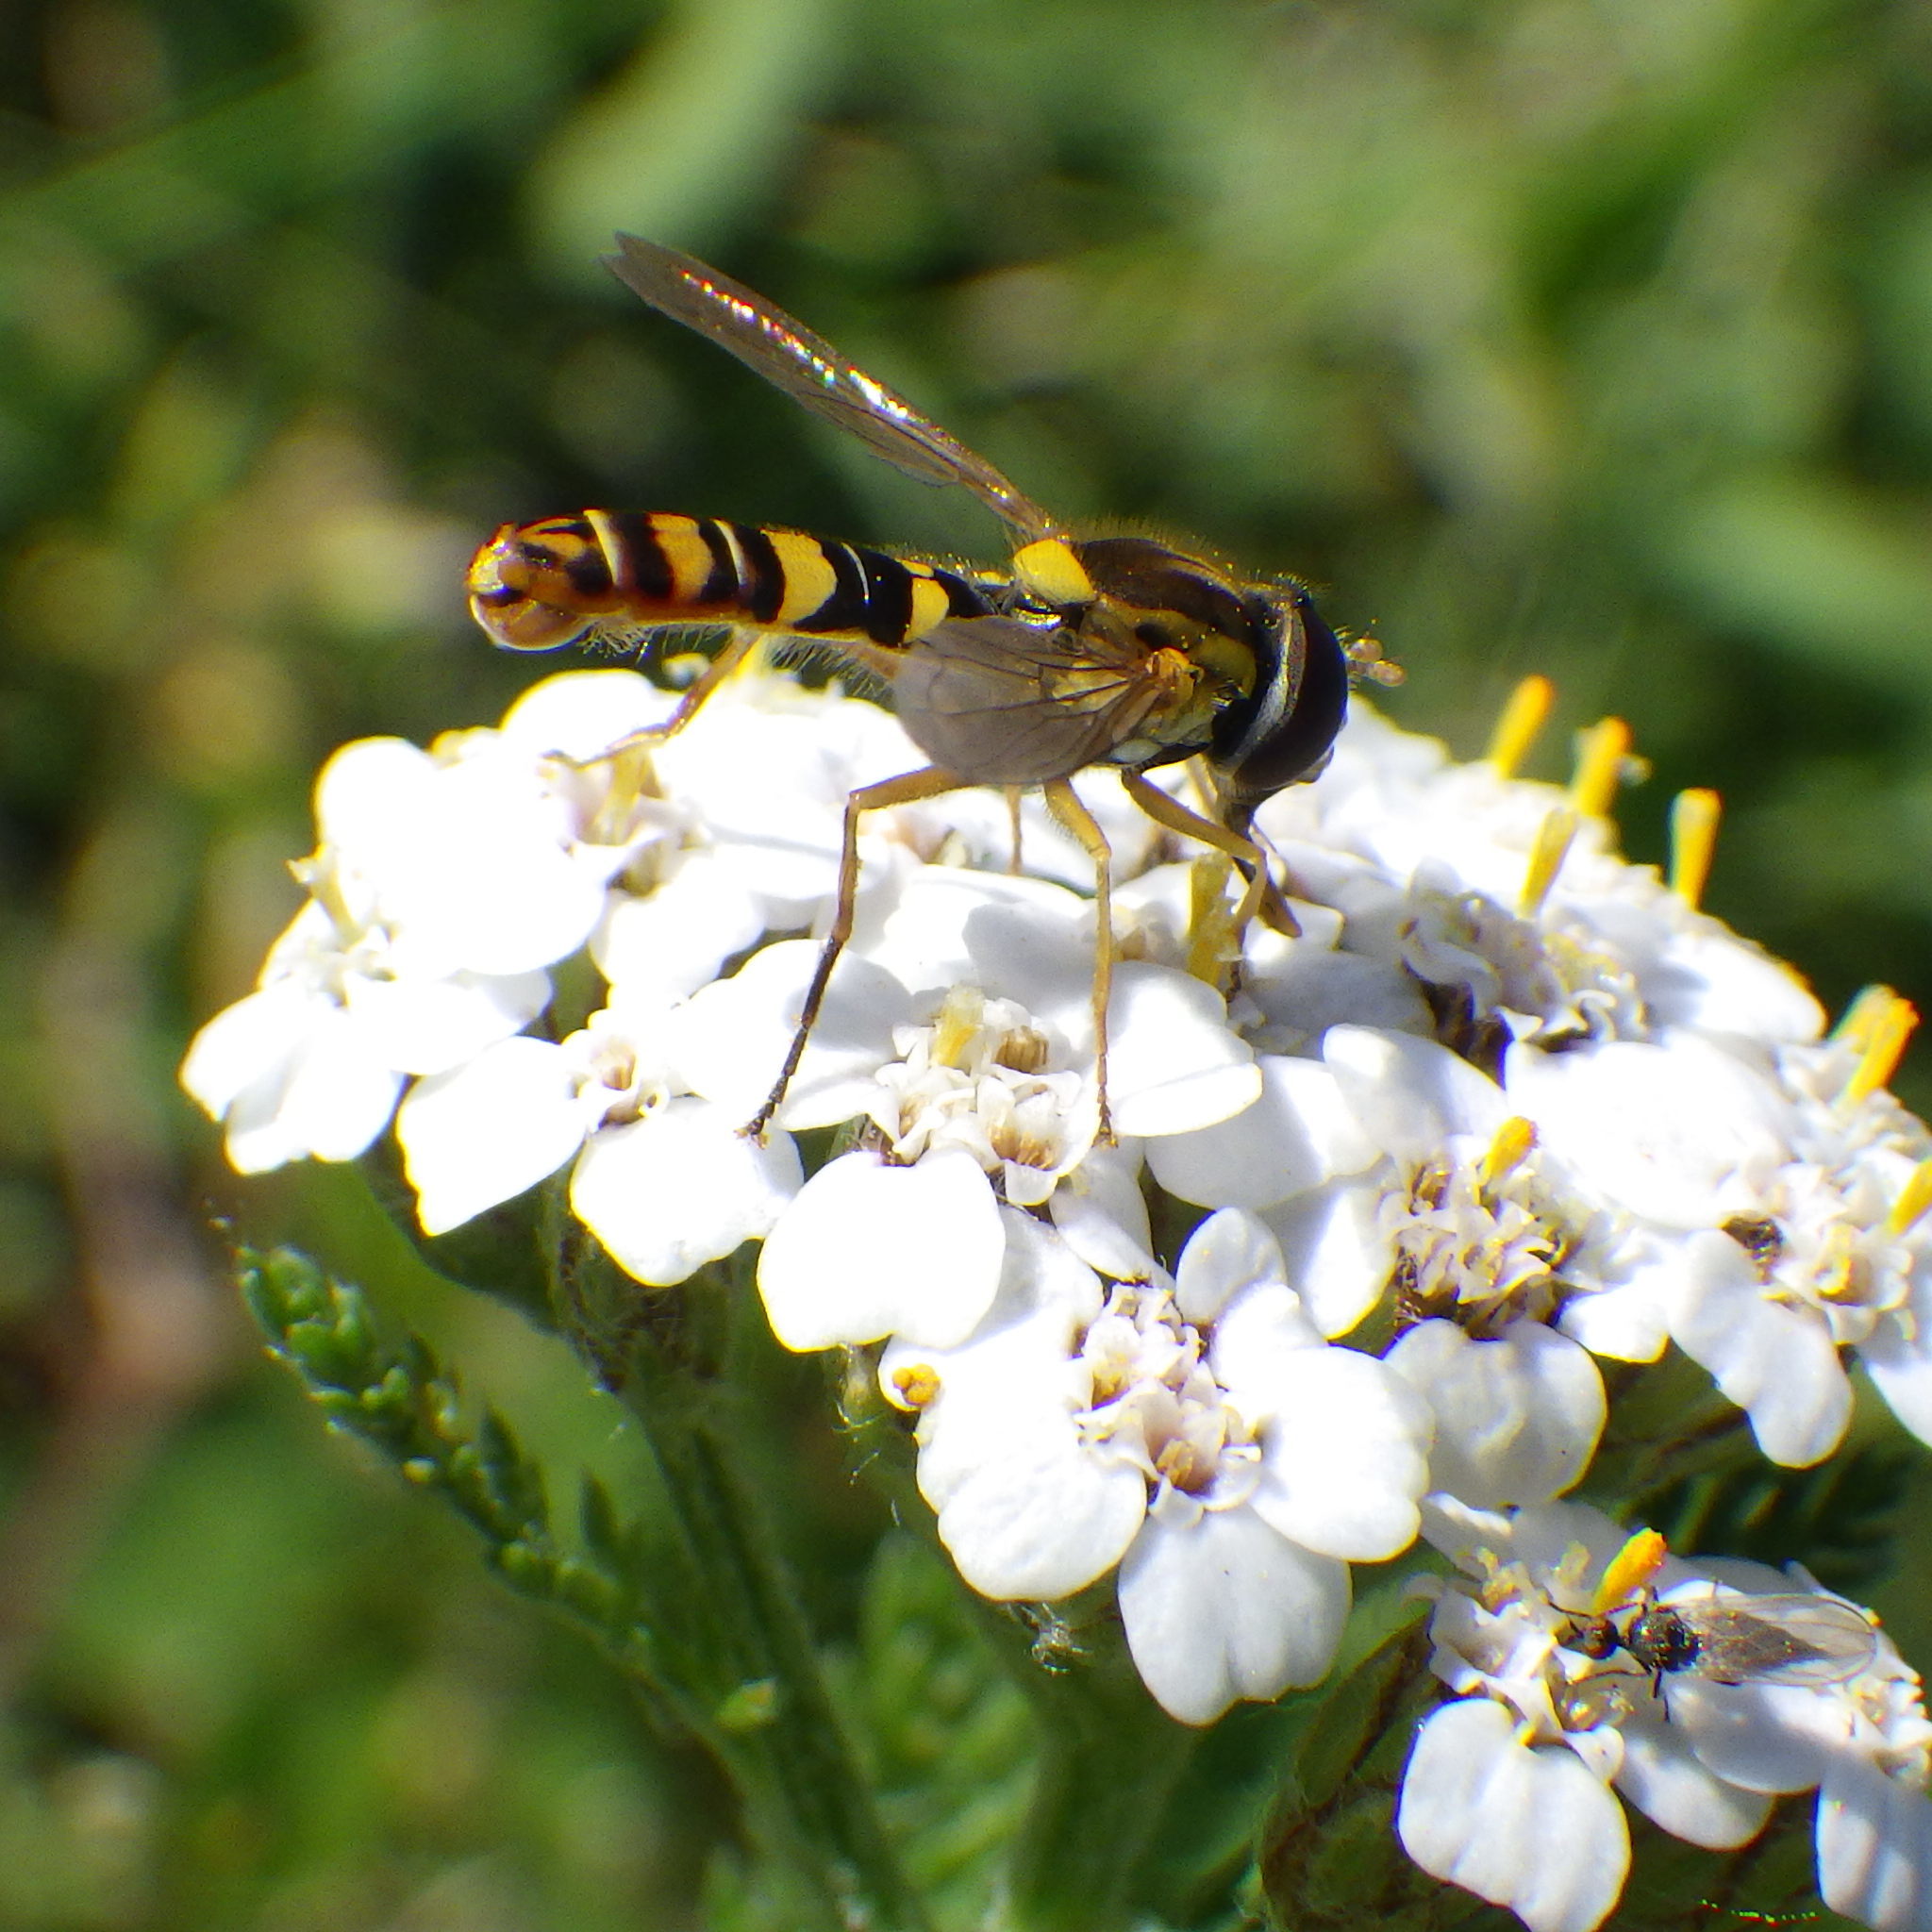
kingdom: Animalia
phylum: Arthropoda
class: Insecta
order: Diptera
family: Syrphidae
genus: Sphaerophoria
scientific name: Sphaerophoria philantha
